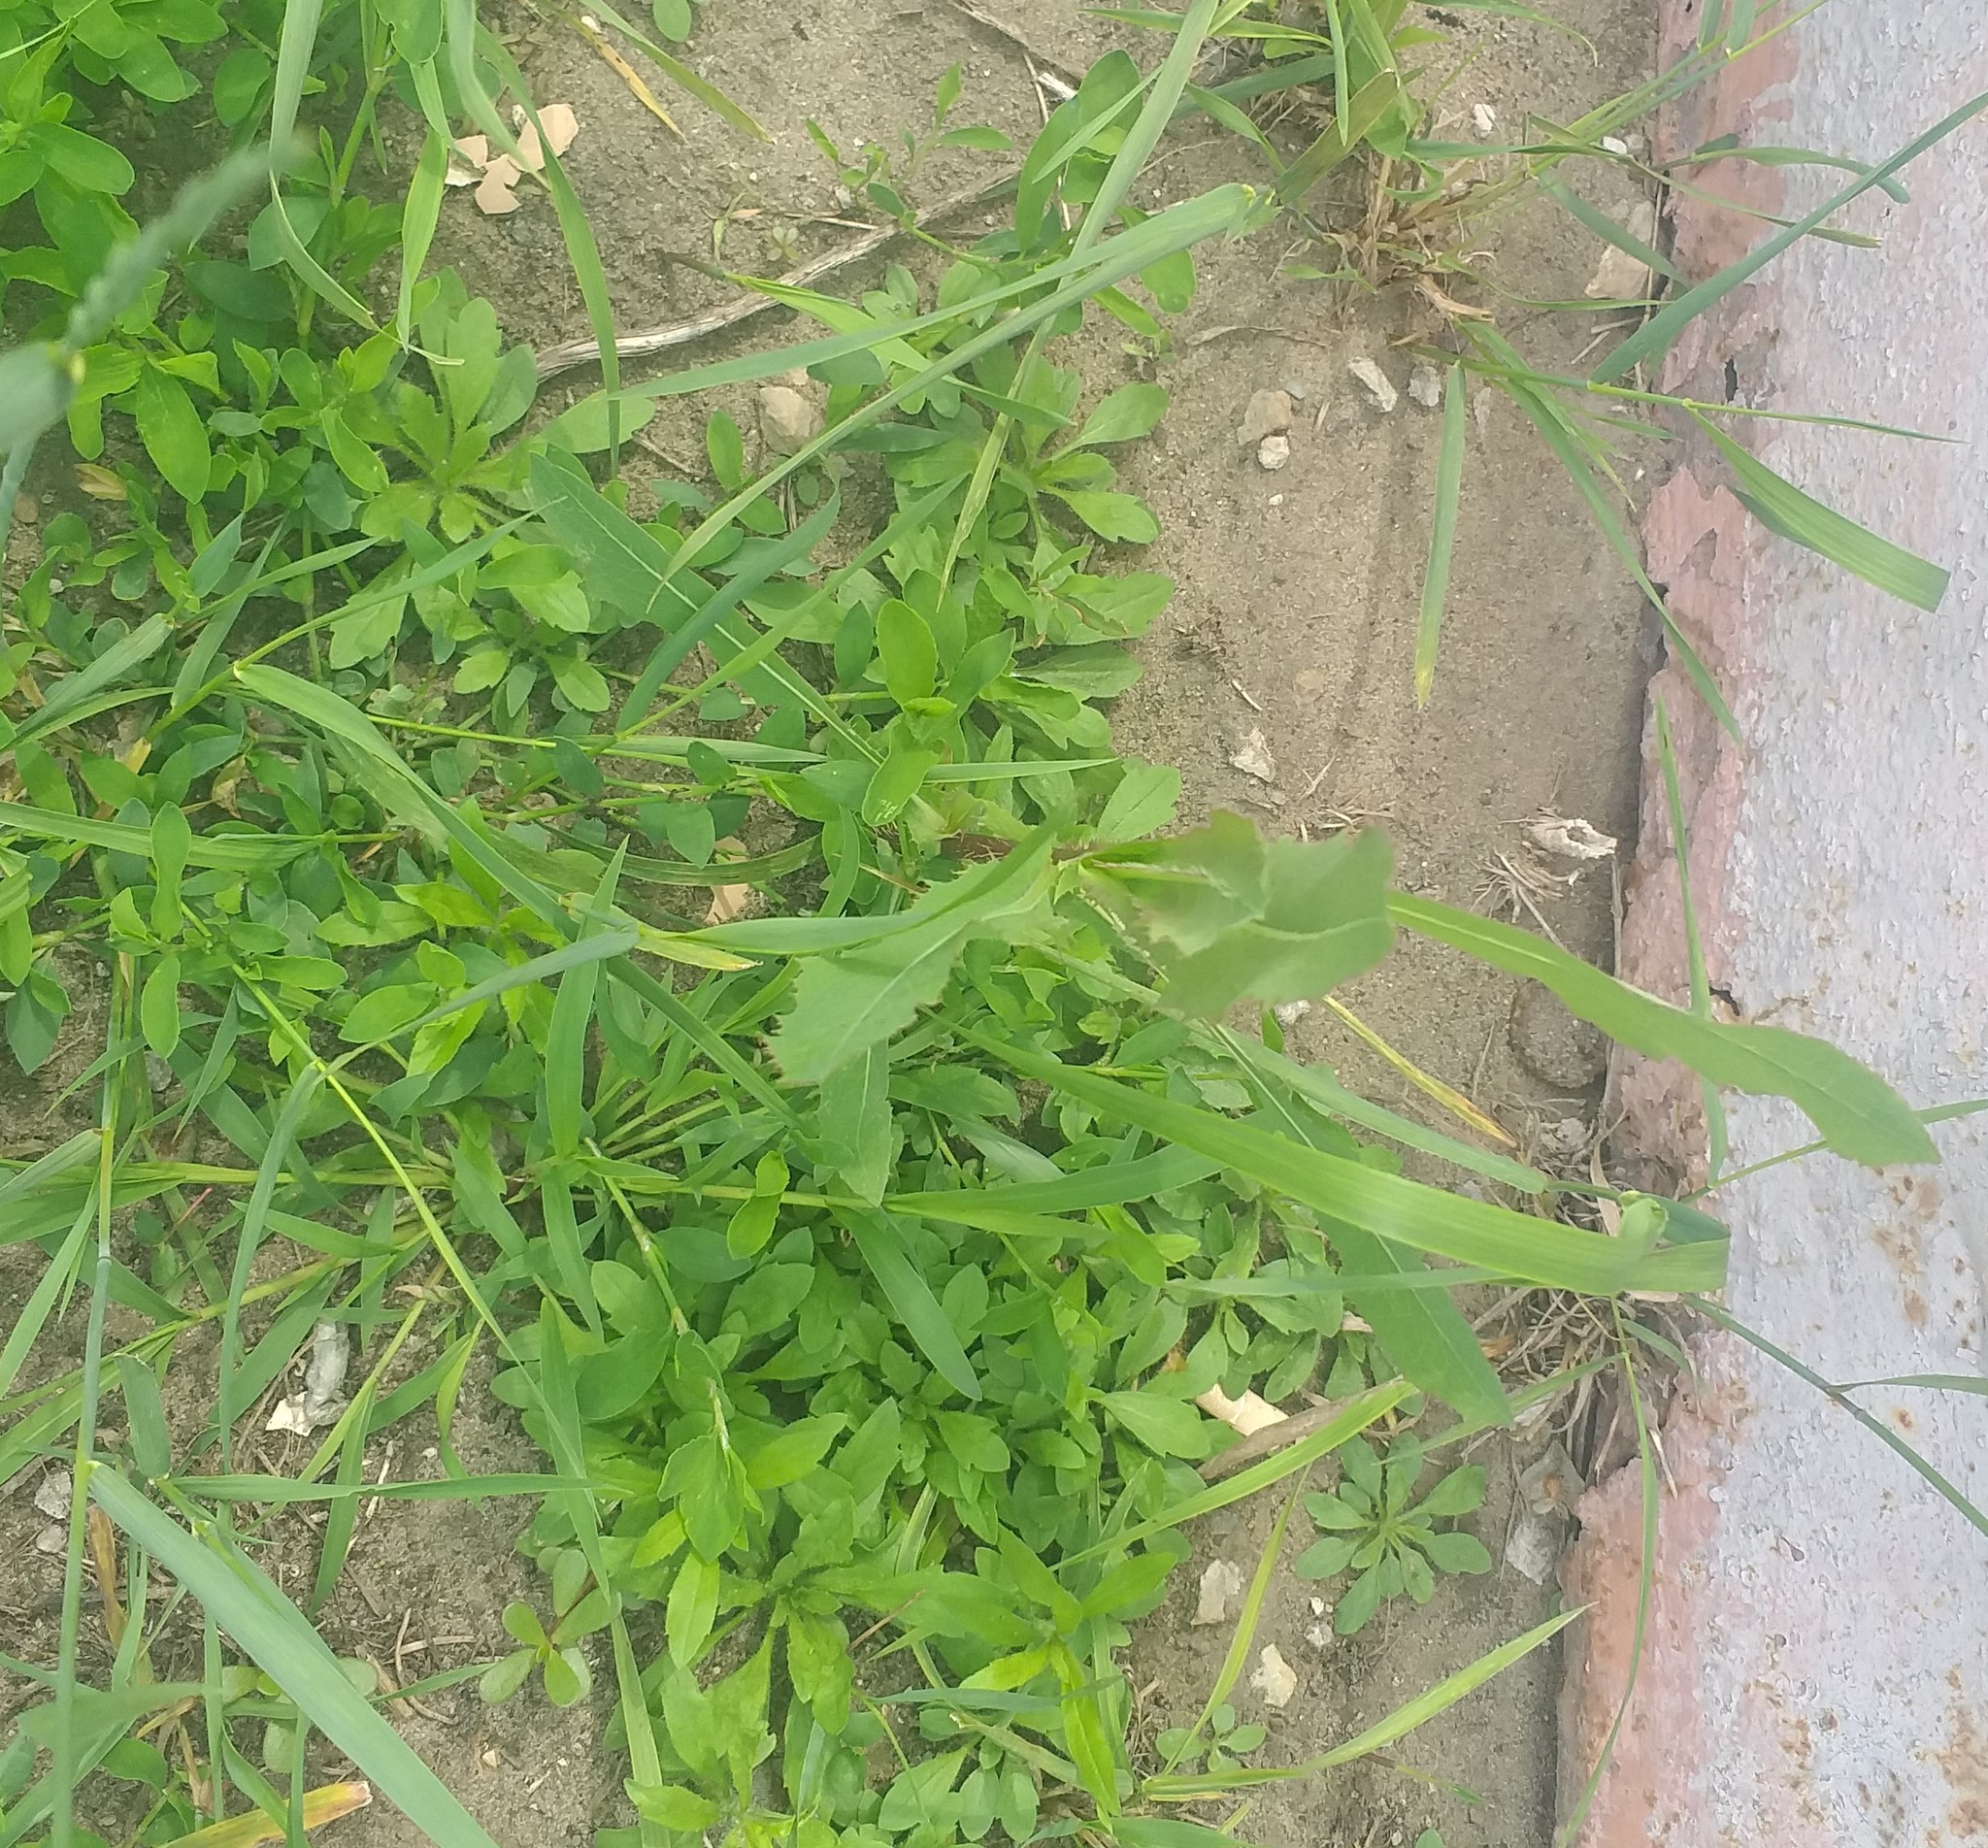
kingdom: Plantae
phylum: Tracheophyta
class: Magnoliopsida
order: Asterales
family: Asteraceae
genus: Lactuca
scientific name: Lactuca serriola
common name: Prickly lettuce
